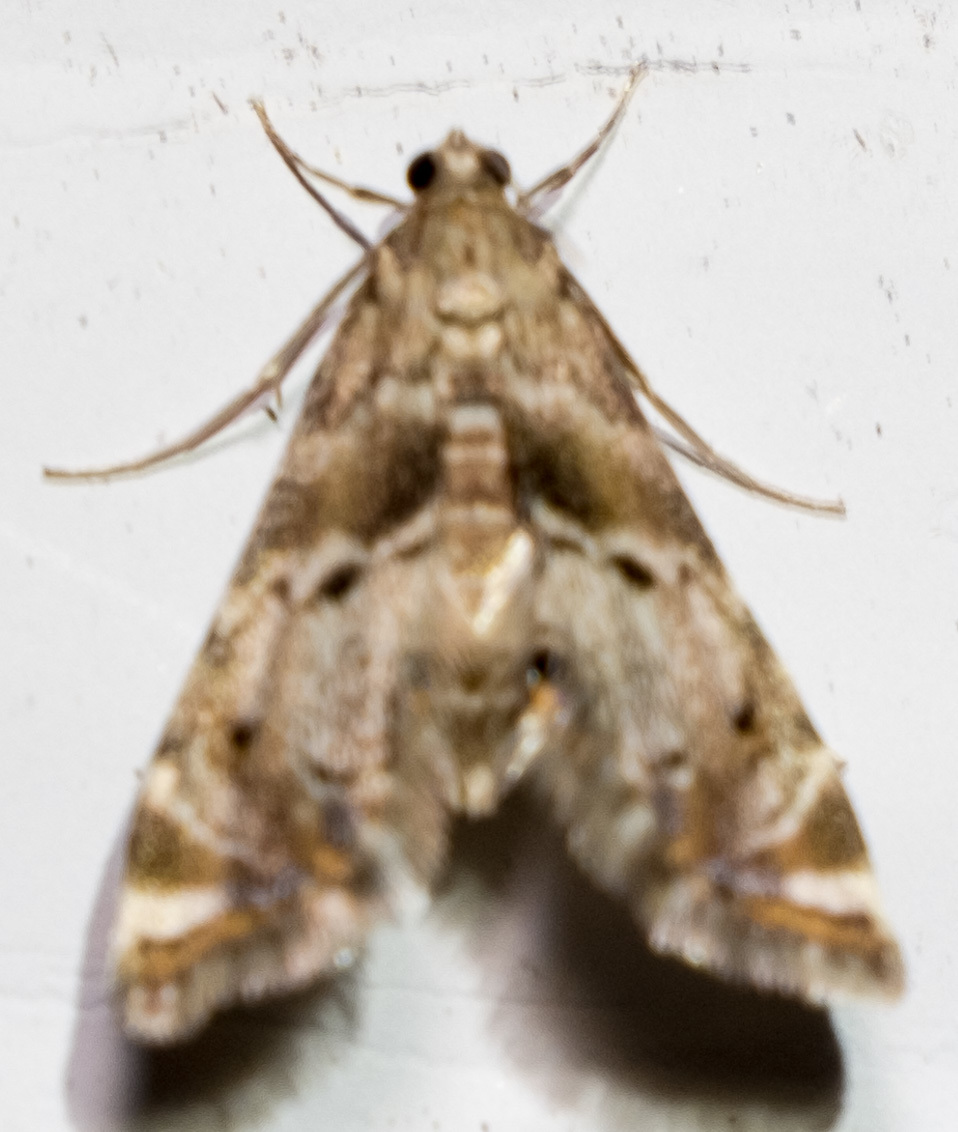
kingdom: Animalia
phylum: Arthropoda
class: Insecta
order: Lepidoptera
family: Crambidae
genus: Petrophila
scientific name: Petrophila fulicalis
